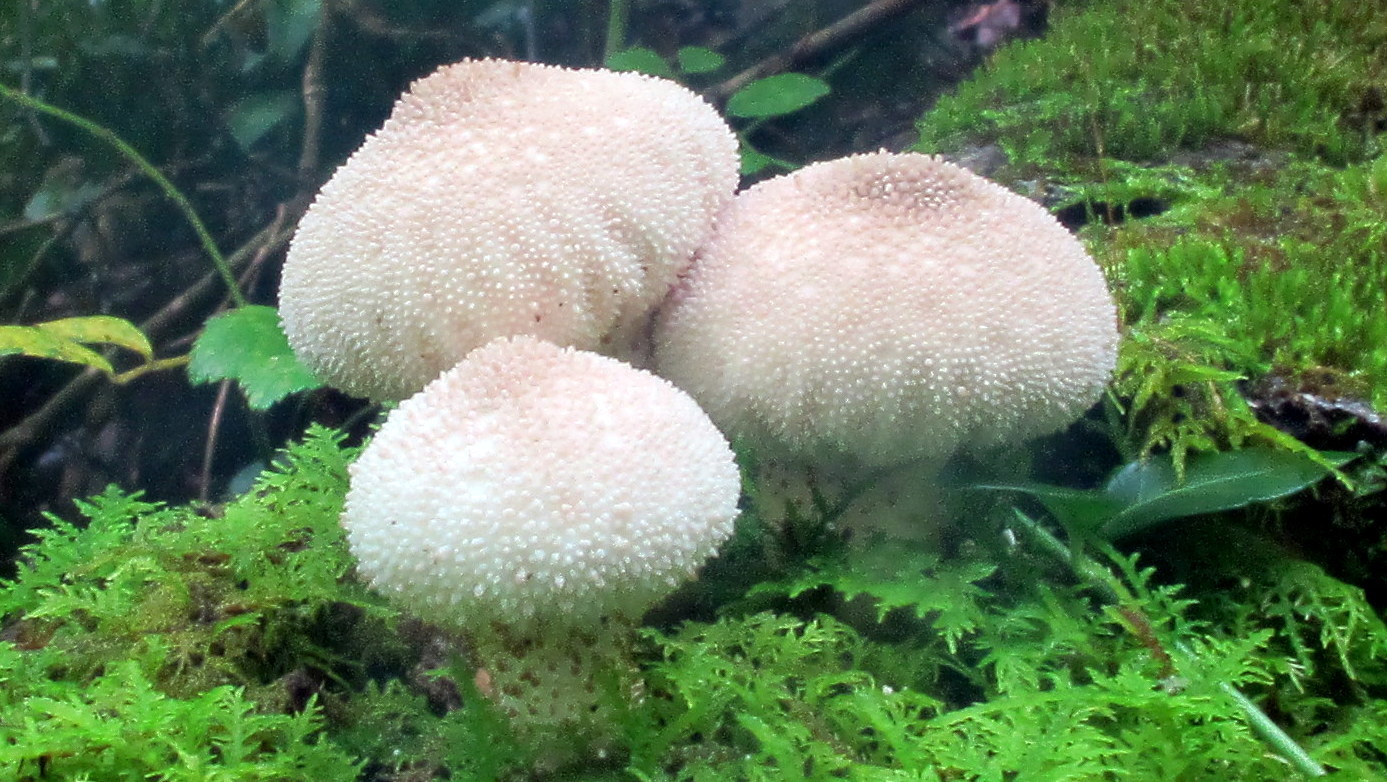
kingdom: Fungi
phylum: Basidiomycota
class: Agaricomycetes
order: Agaricales
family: Lycoperdaceae
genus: Lycoperdon
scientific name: Lycoperdon perlatum
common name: Common puffball
